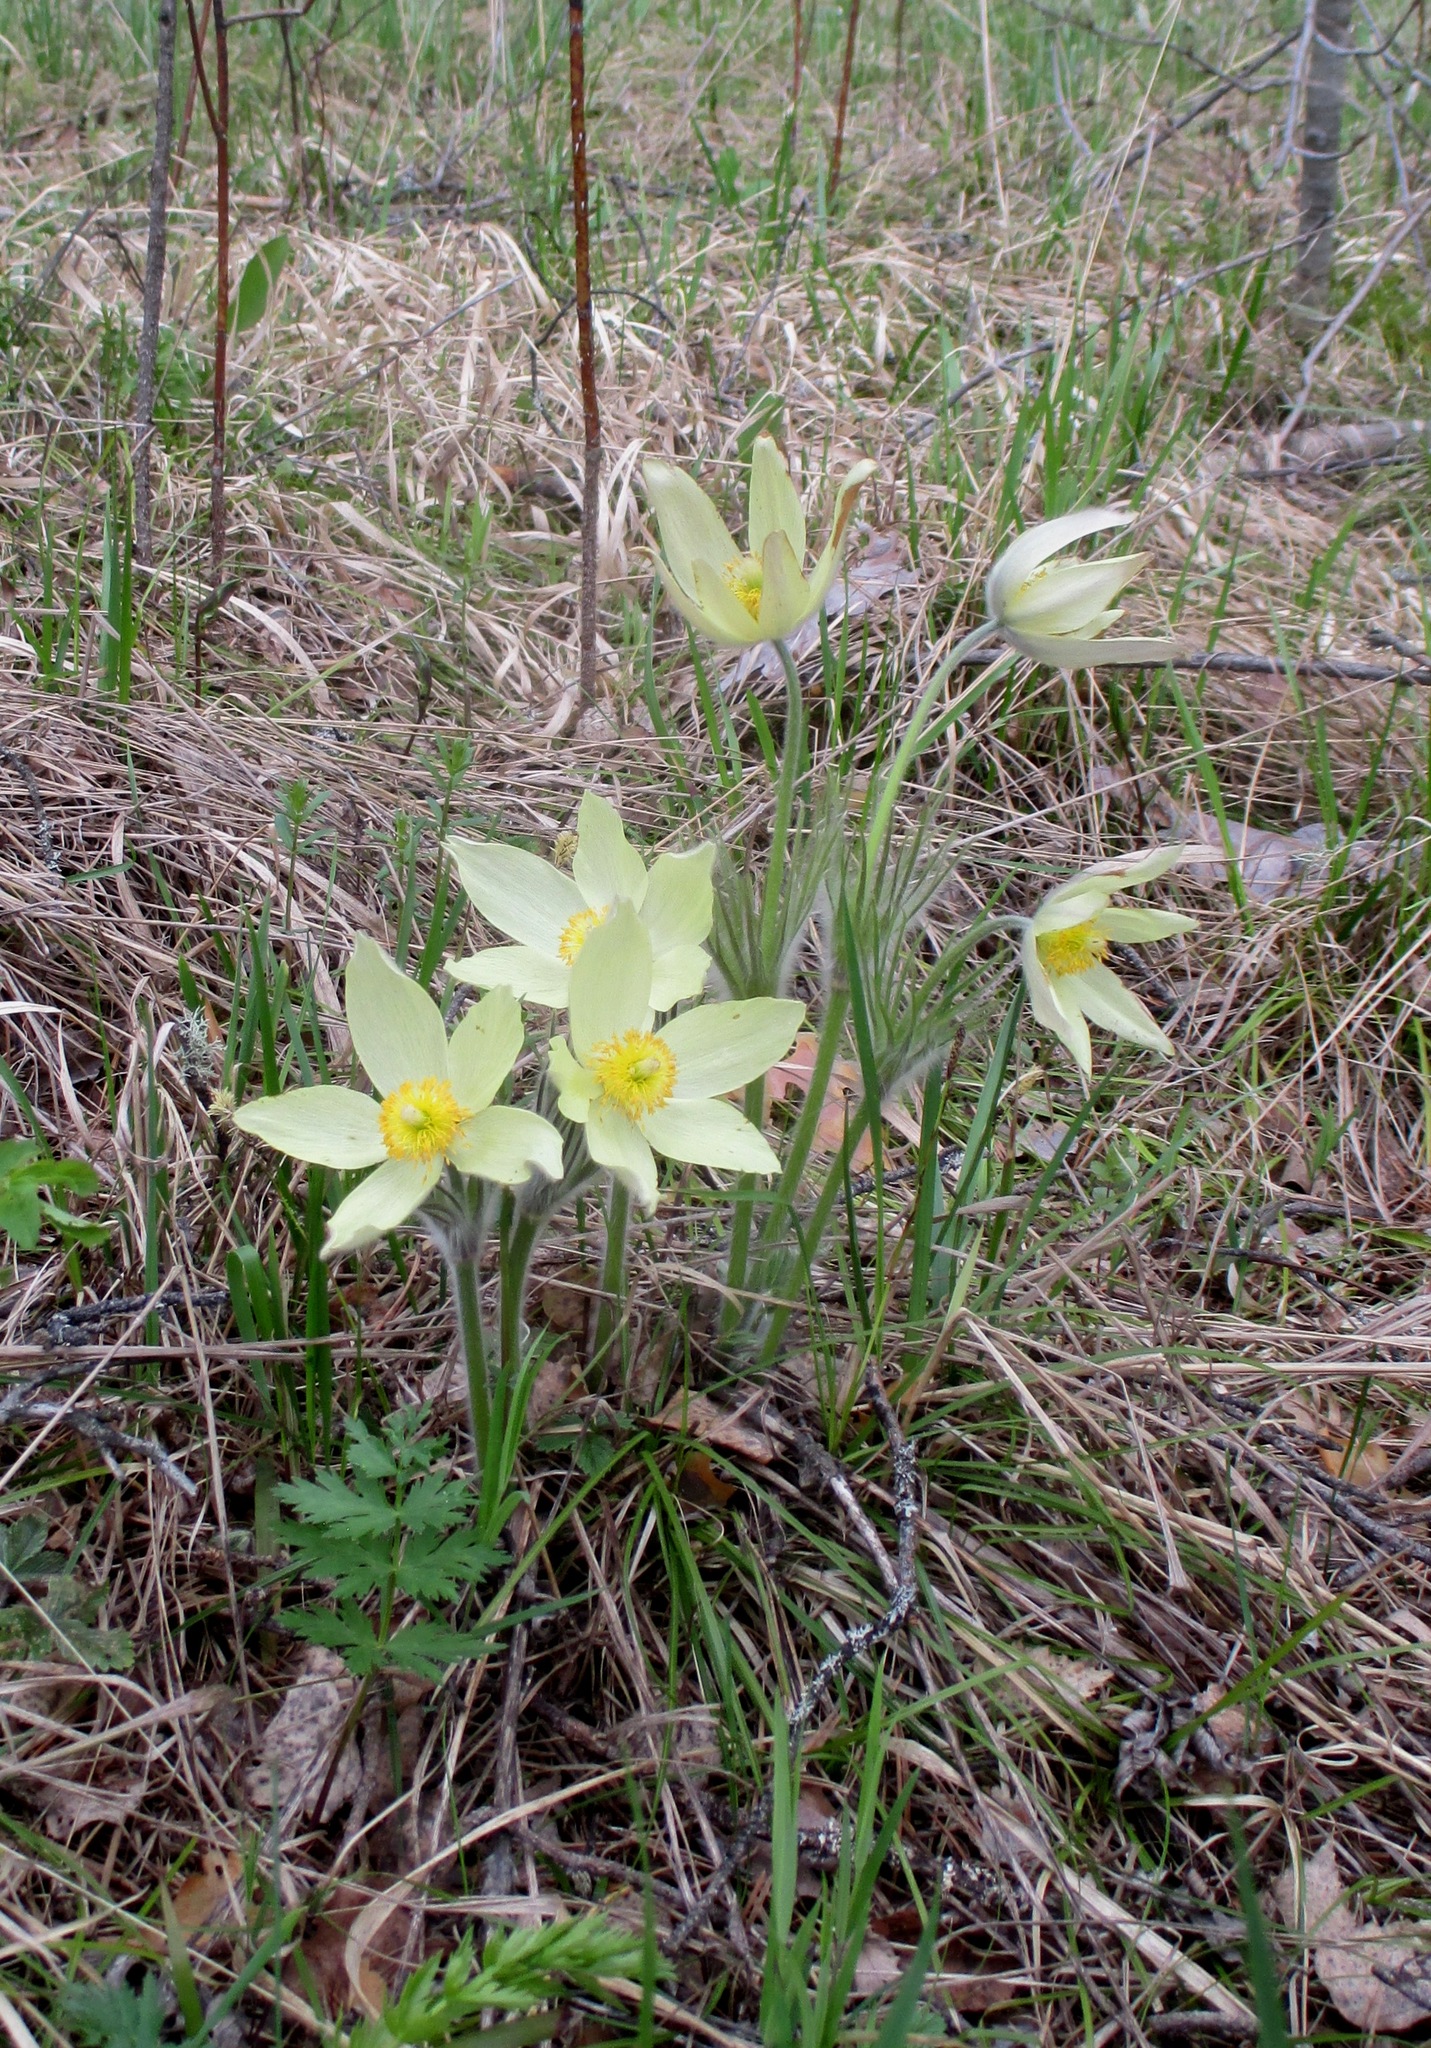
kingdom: Plantae
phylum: Tracheophyta
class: Magnoliopsida
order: Ranunculales
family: Ranunculaceae
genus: Pulsatilla
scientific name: Pulsatilla patens
